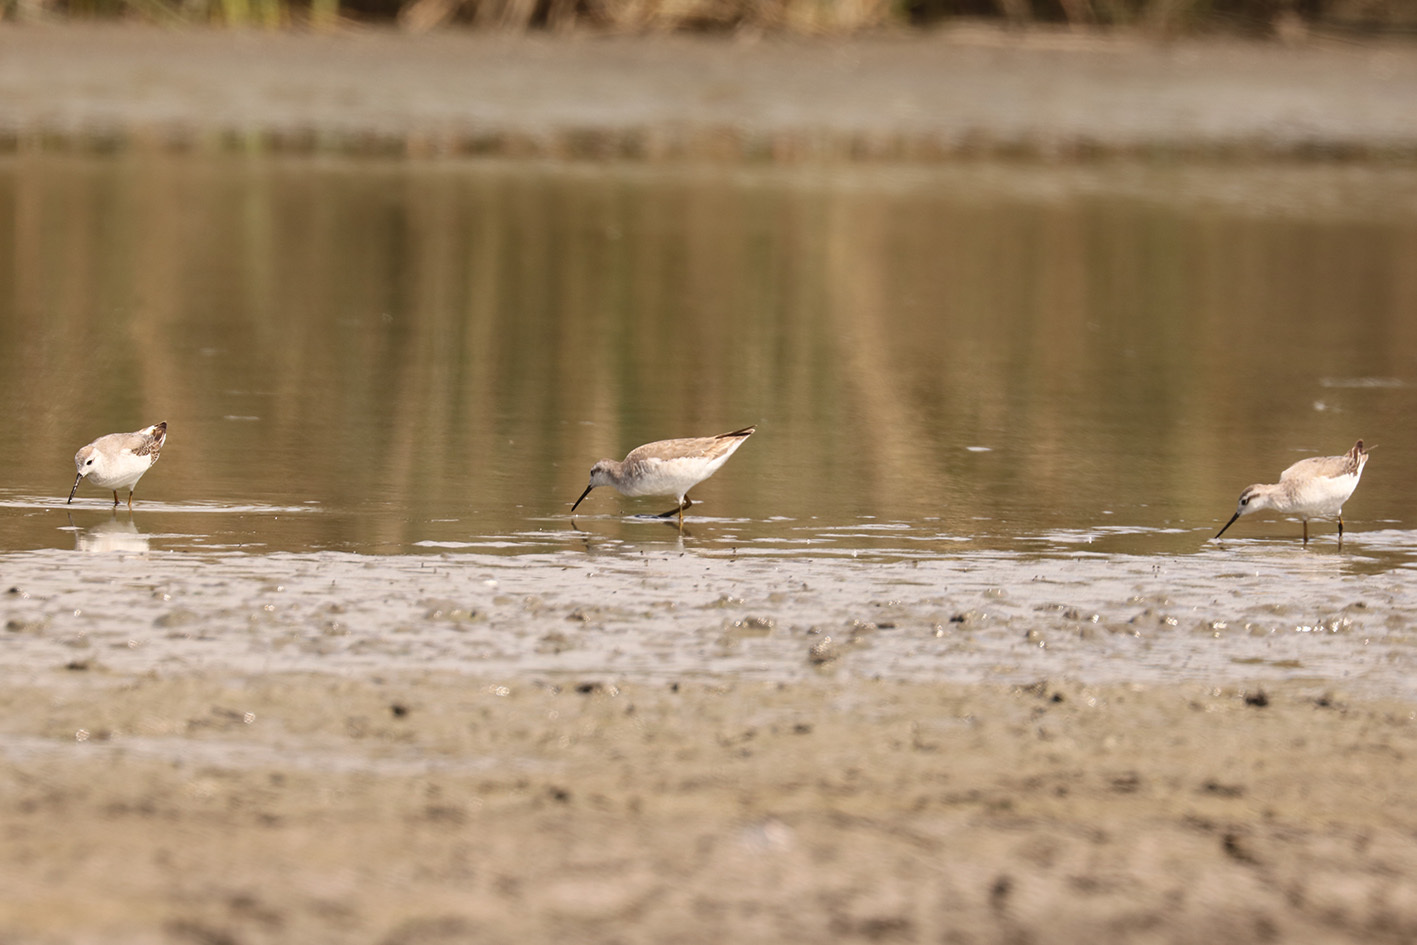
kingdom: Animalia
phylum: Chordata
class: Aves
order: Charadriiformes
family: Scolopacidae
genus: Phalaropus
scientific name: Phalaropus tricolor
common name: Wilson's phalarope
